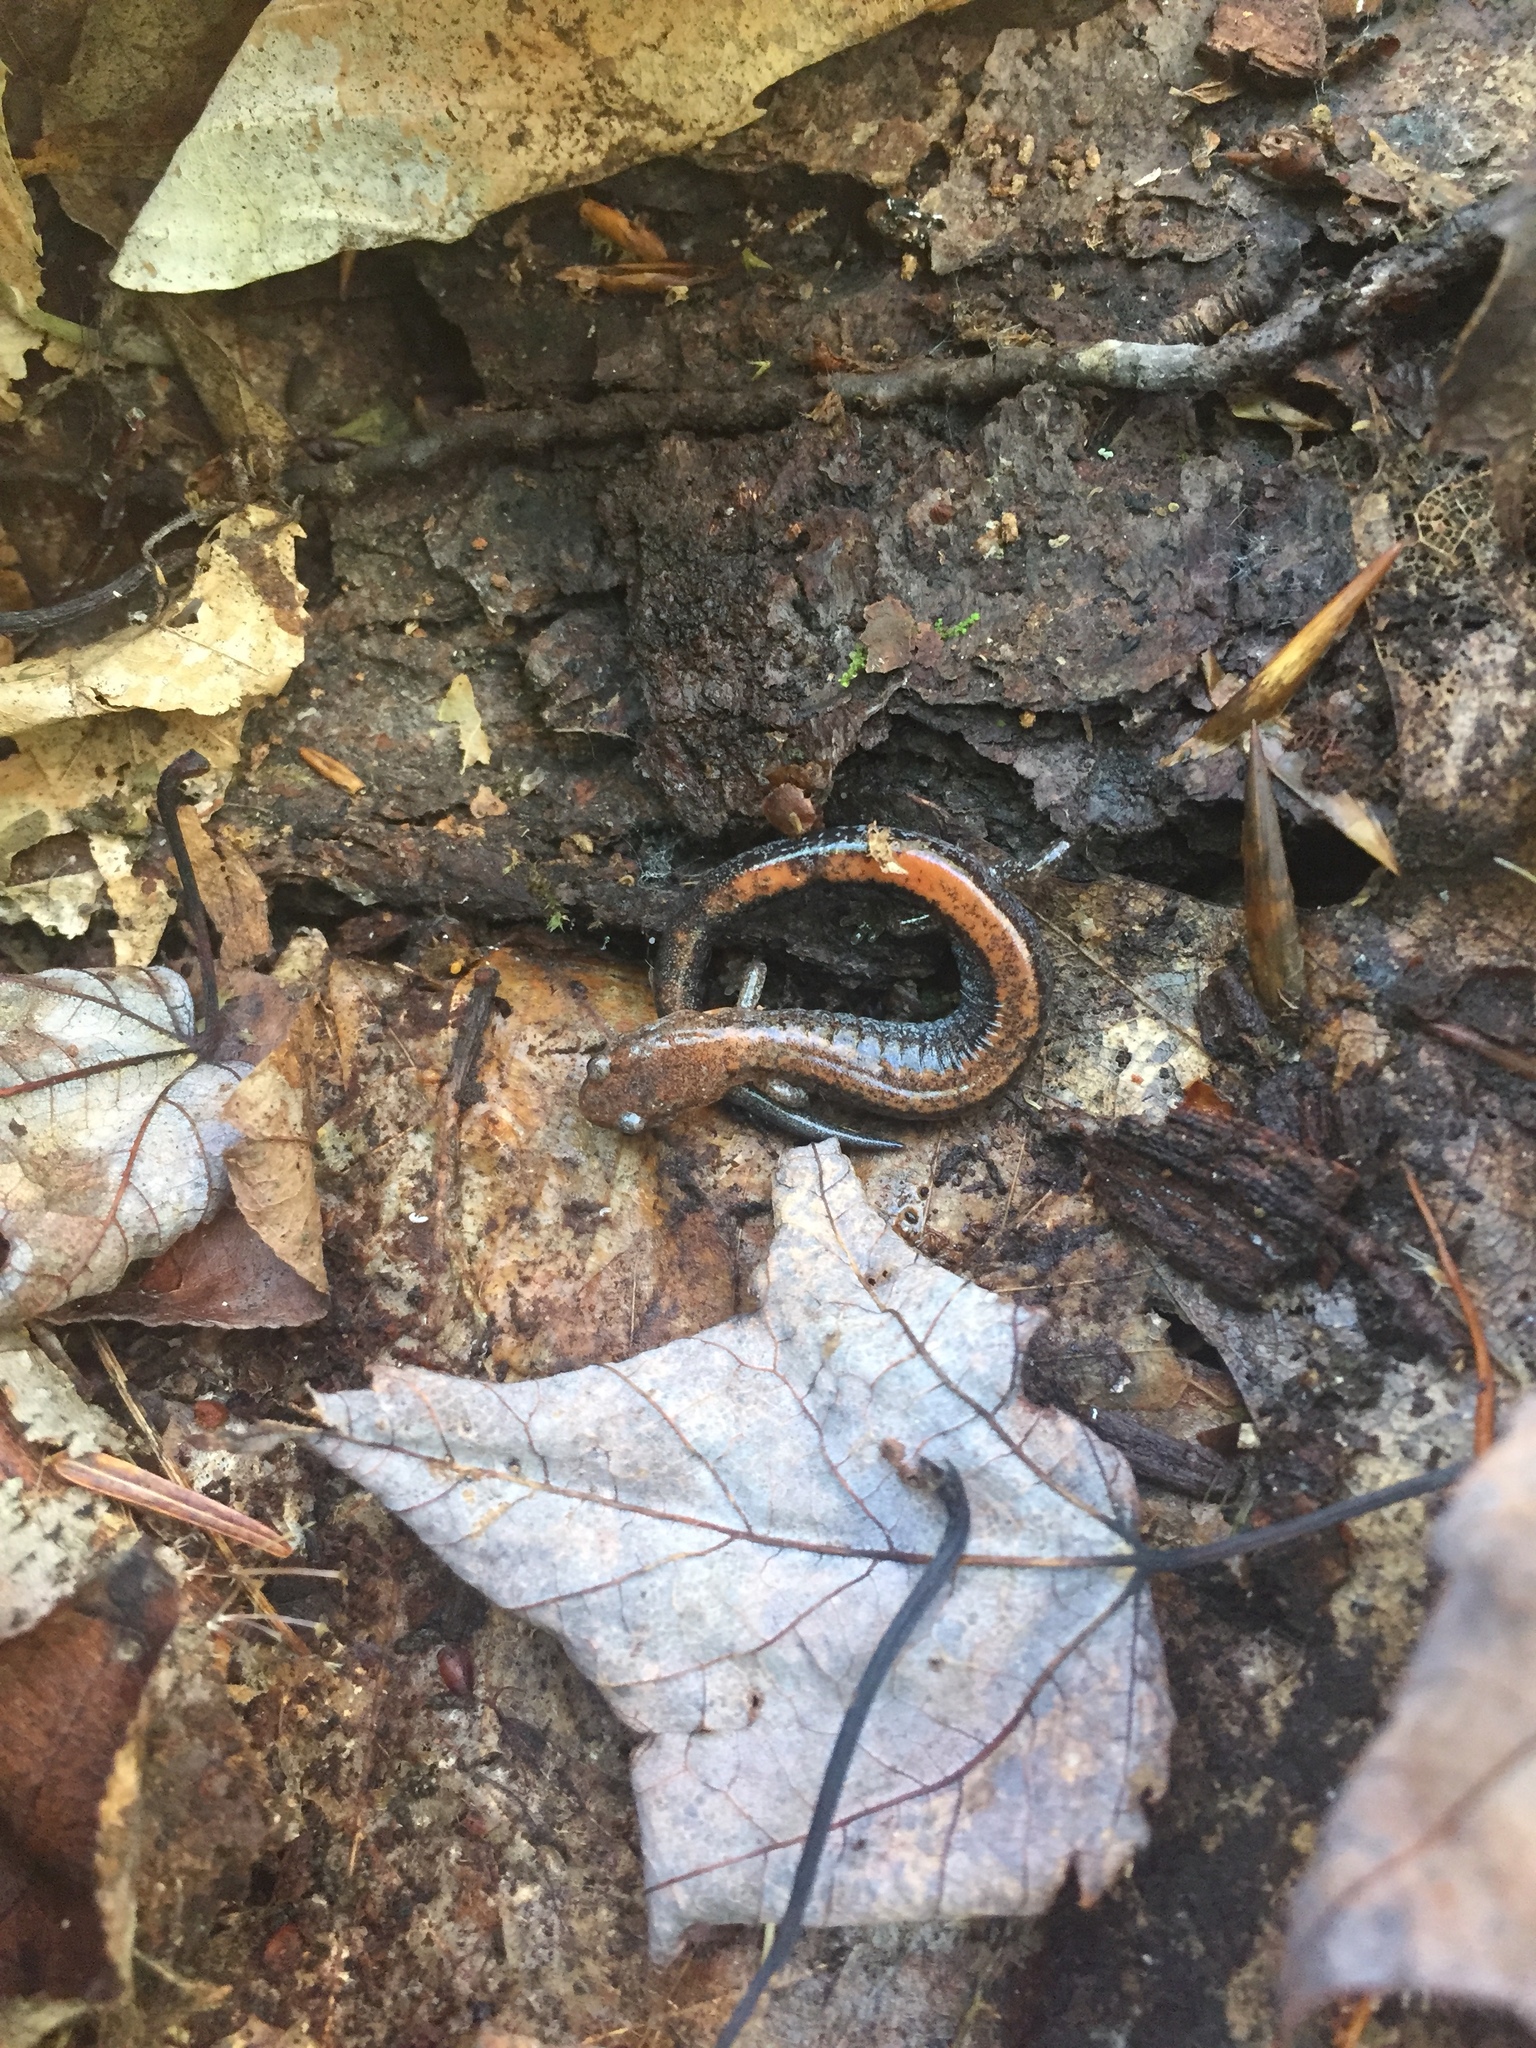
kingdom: Animalia
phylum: Chordata
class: Amphibia
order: Caudata
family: Plethodontidae
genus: Plethodon
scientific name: Plethodon cinereus
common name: Redback salamander
